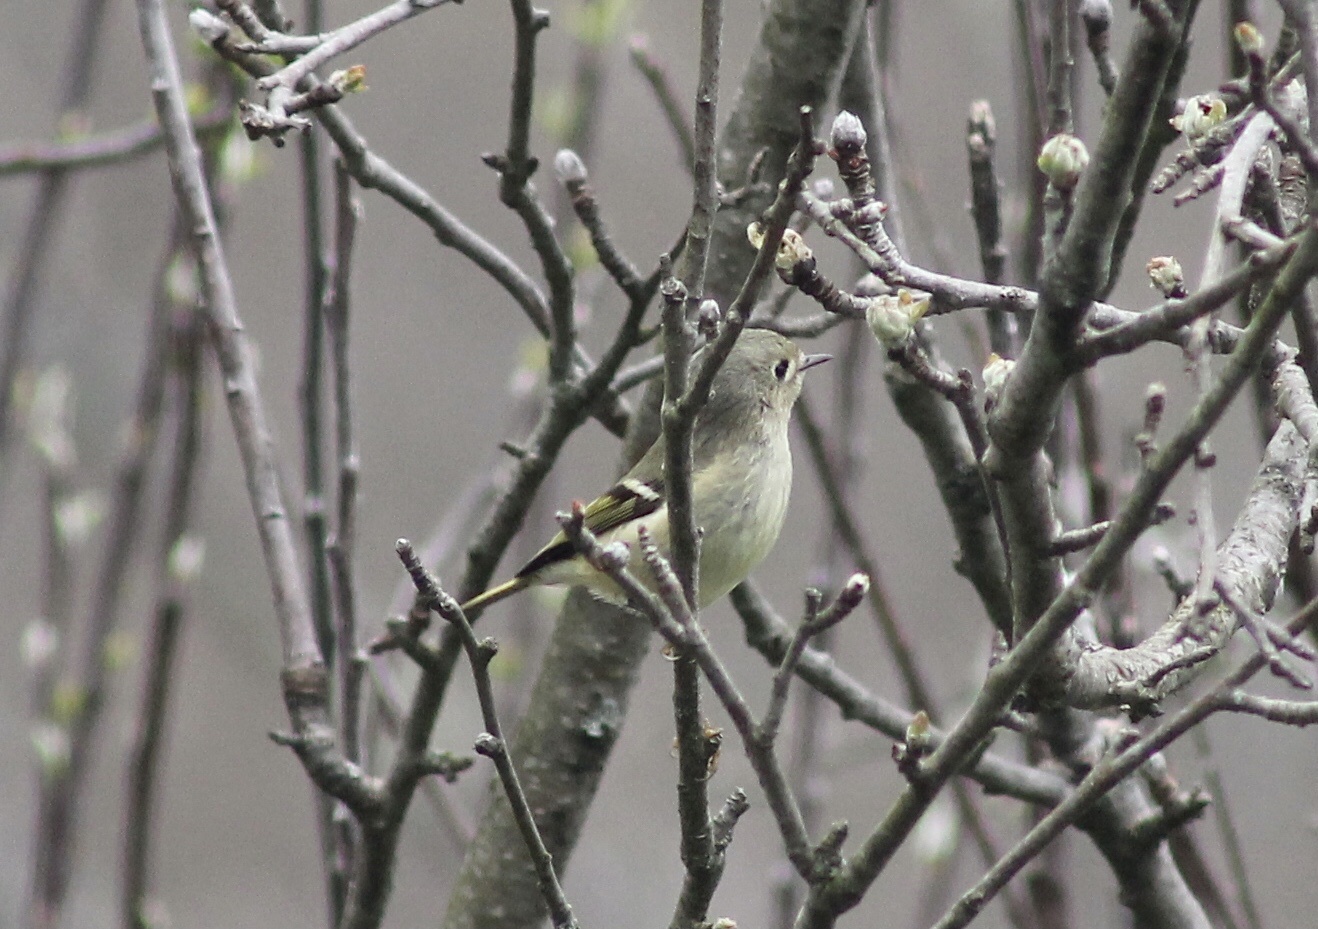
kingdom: Animalia
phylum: Chordata
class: Aves
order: Passeriformes
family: Regulidae
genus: Regulus
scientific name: Regulus calendula
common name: Ruby-crowned kinglet
